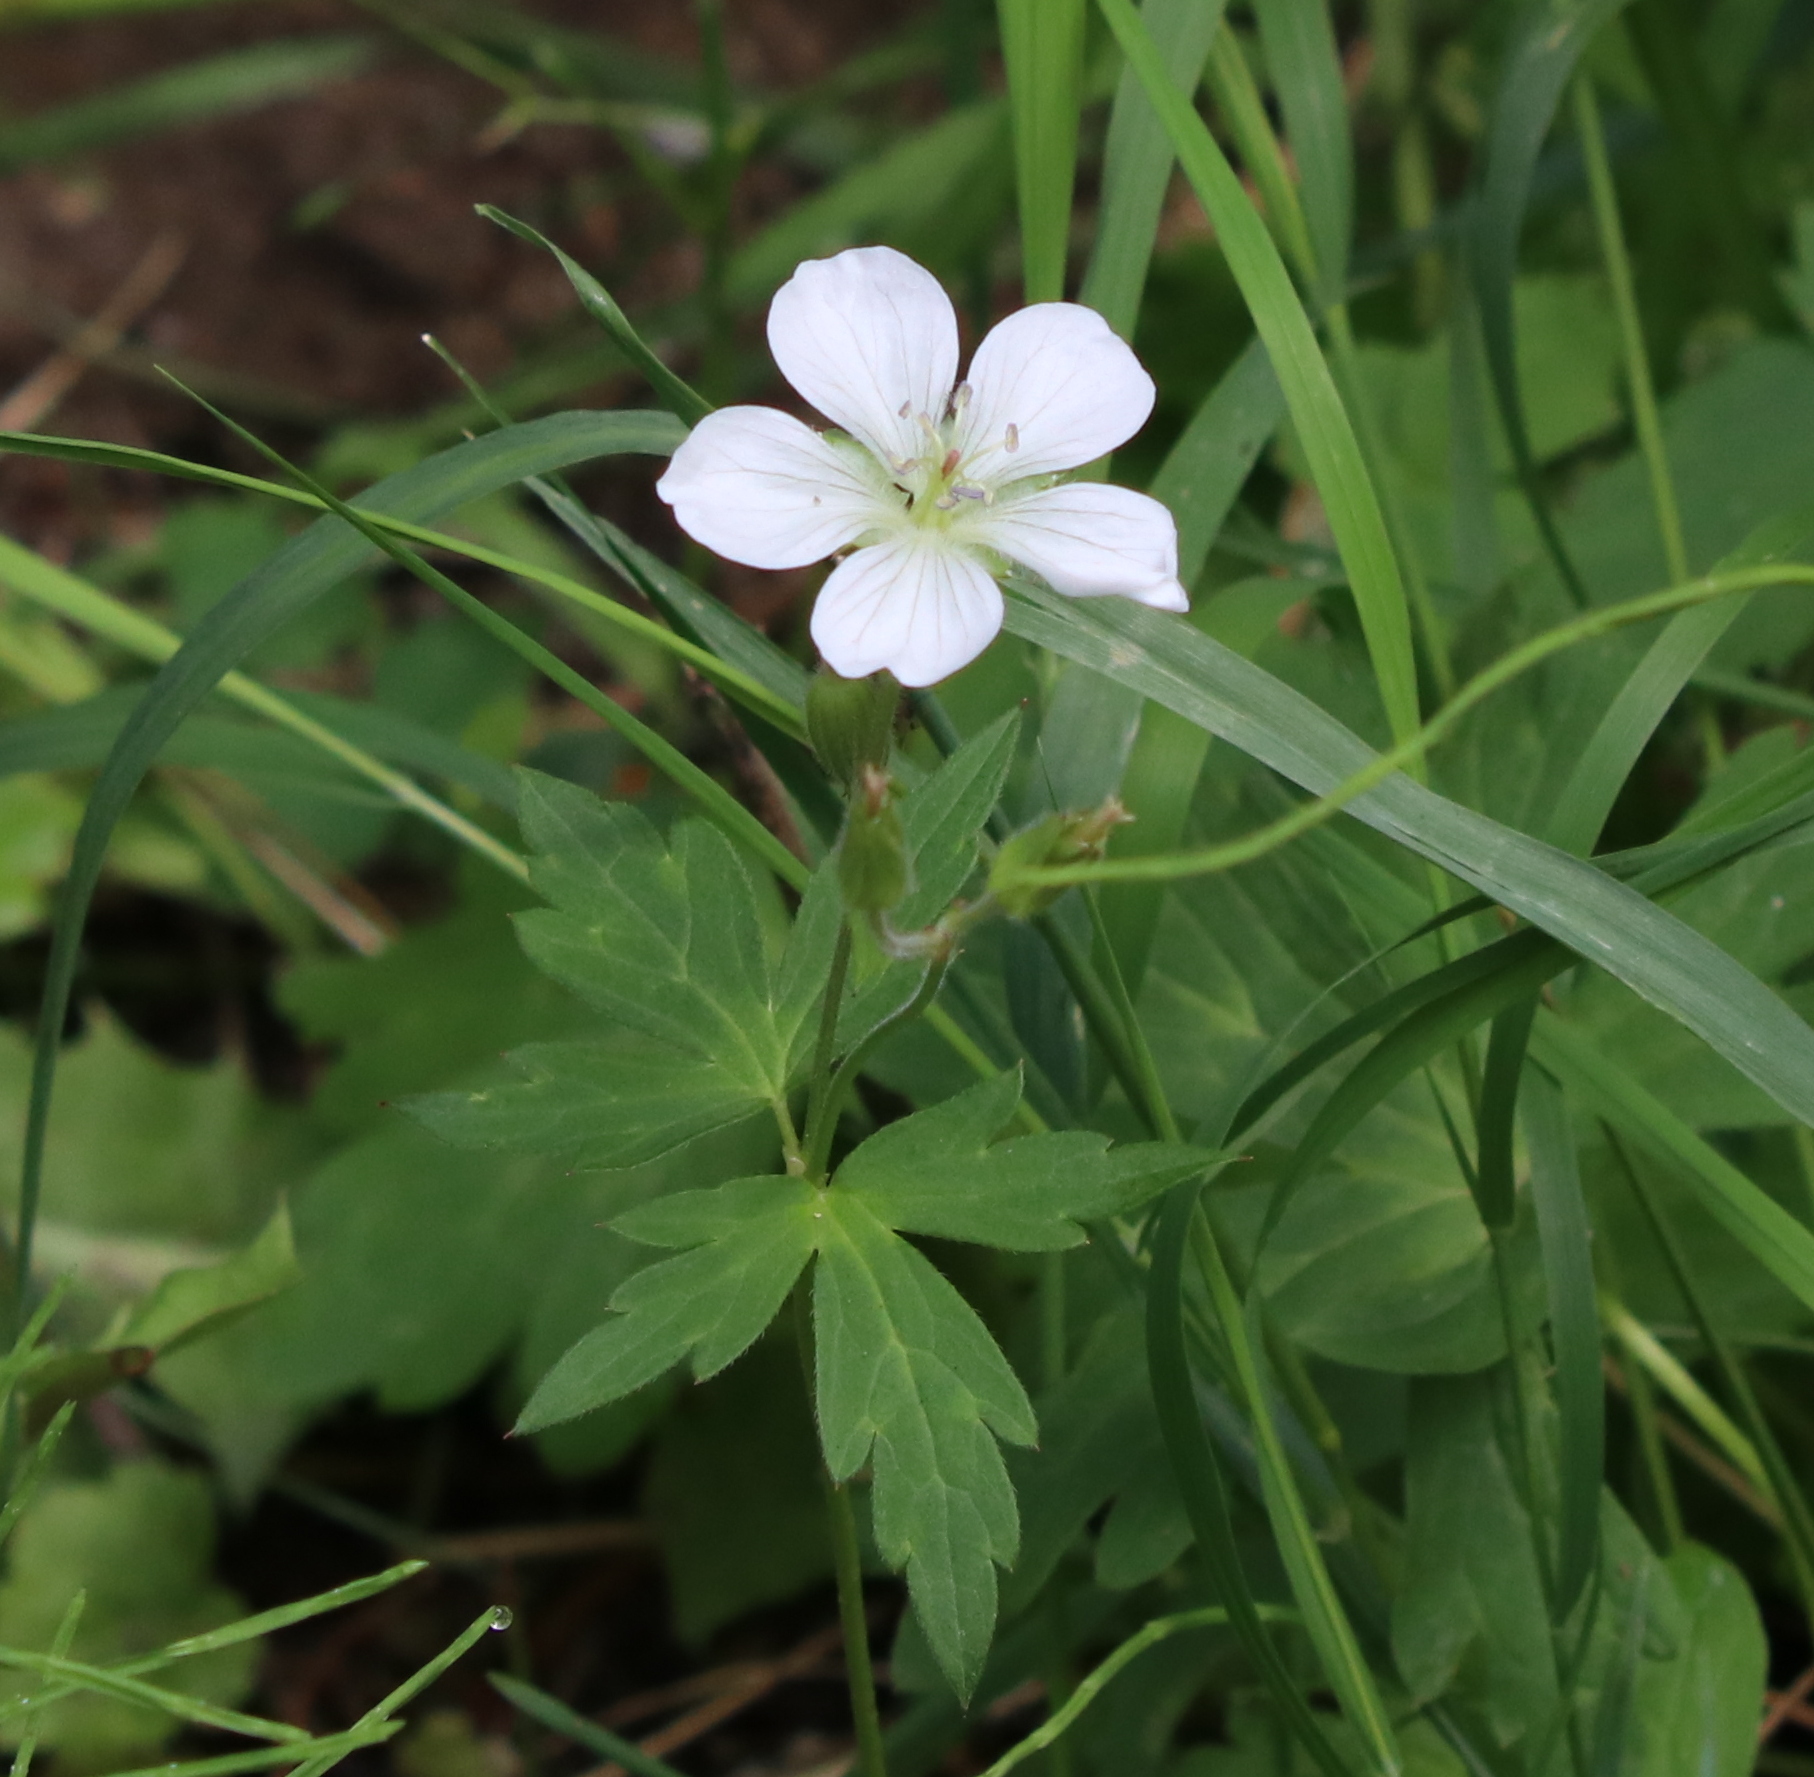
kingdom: Plantae
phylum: Tracheophyta
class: Magnoliopsida
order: Geraniales
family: Geraniaceae
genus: Geranium
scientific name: Geranium richardsonii
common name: Richardson's crane's-bill
